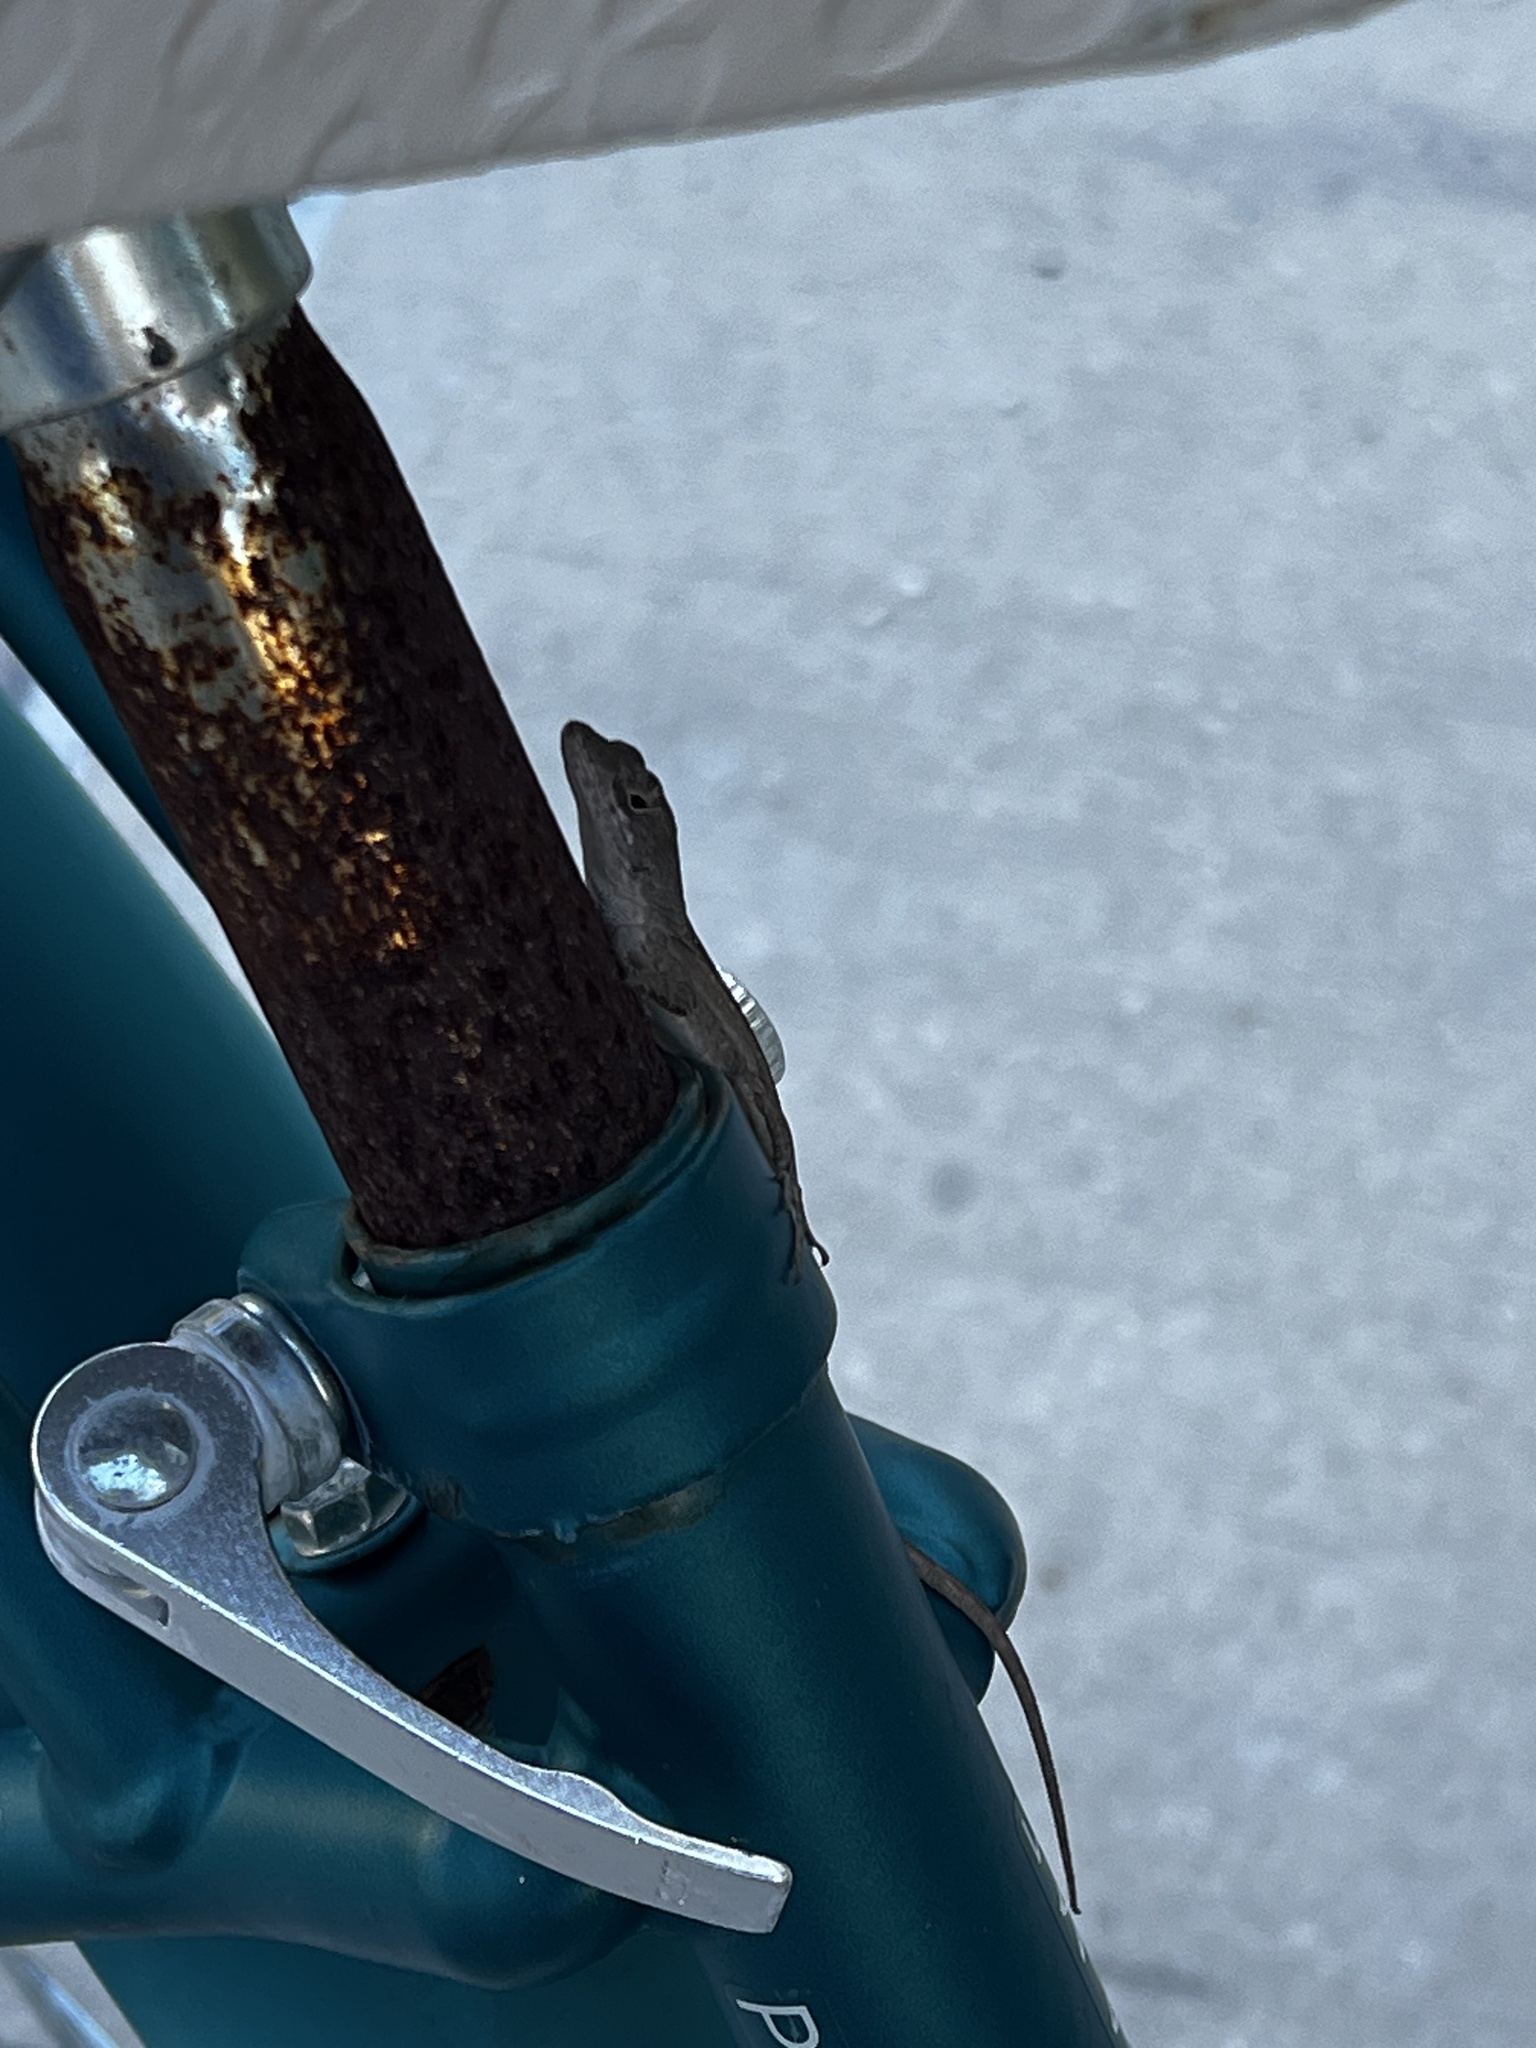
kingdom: Animalia
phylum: Chordata
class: Squamata
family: Dactyloidae
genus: Anolis
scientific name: Anolis sagrei
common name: Brown anole
